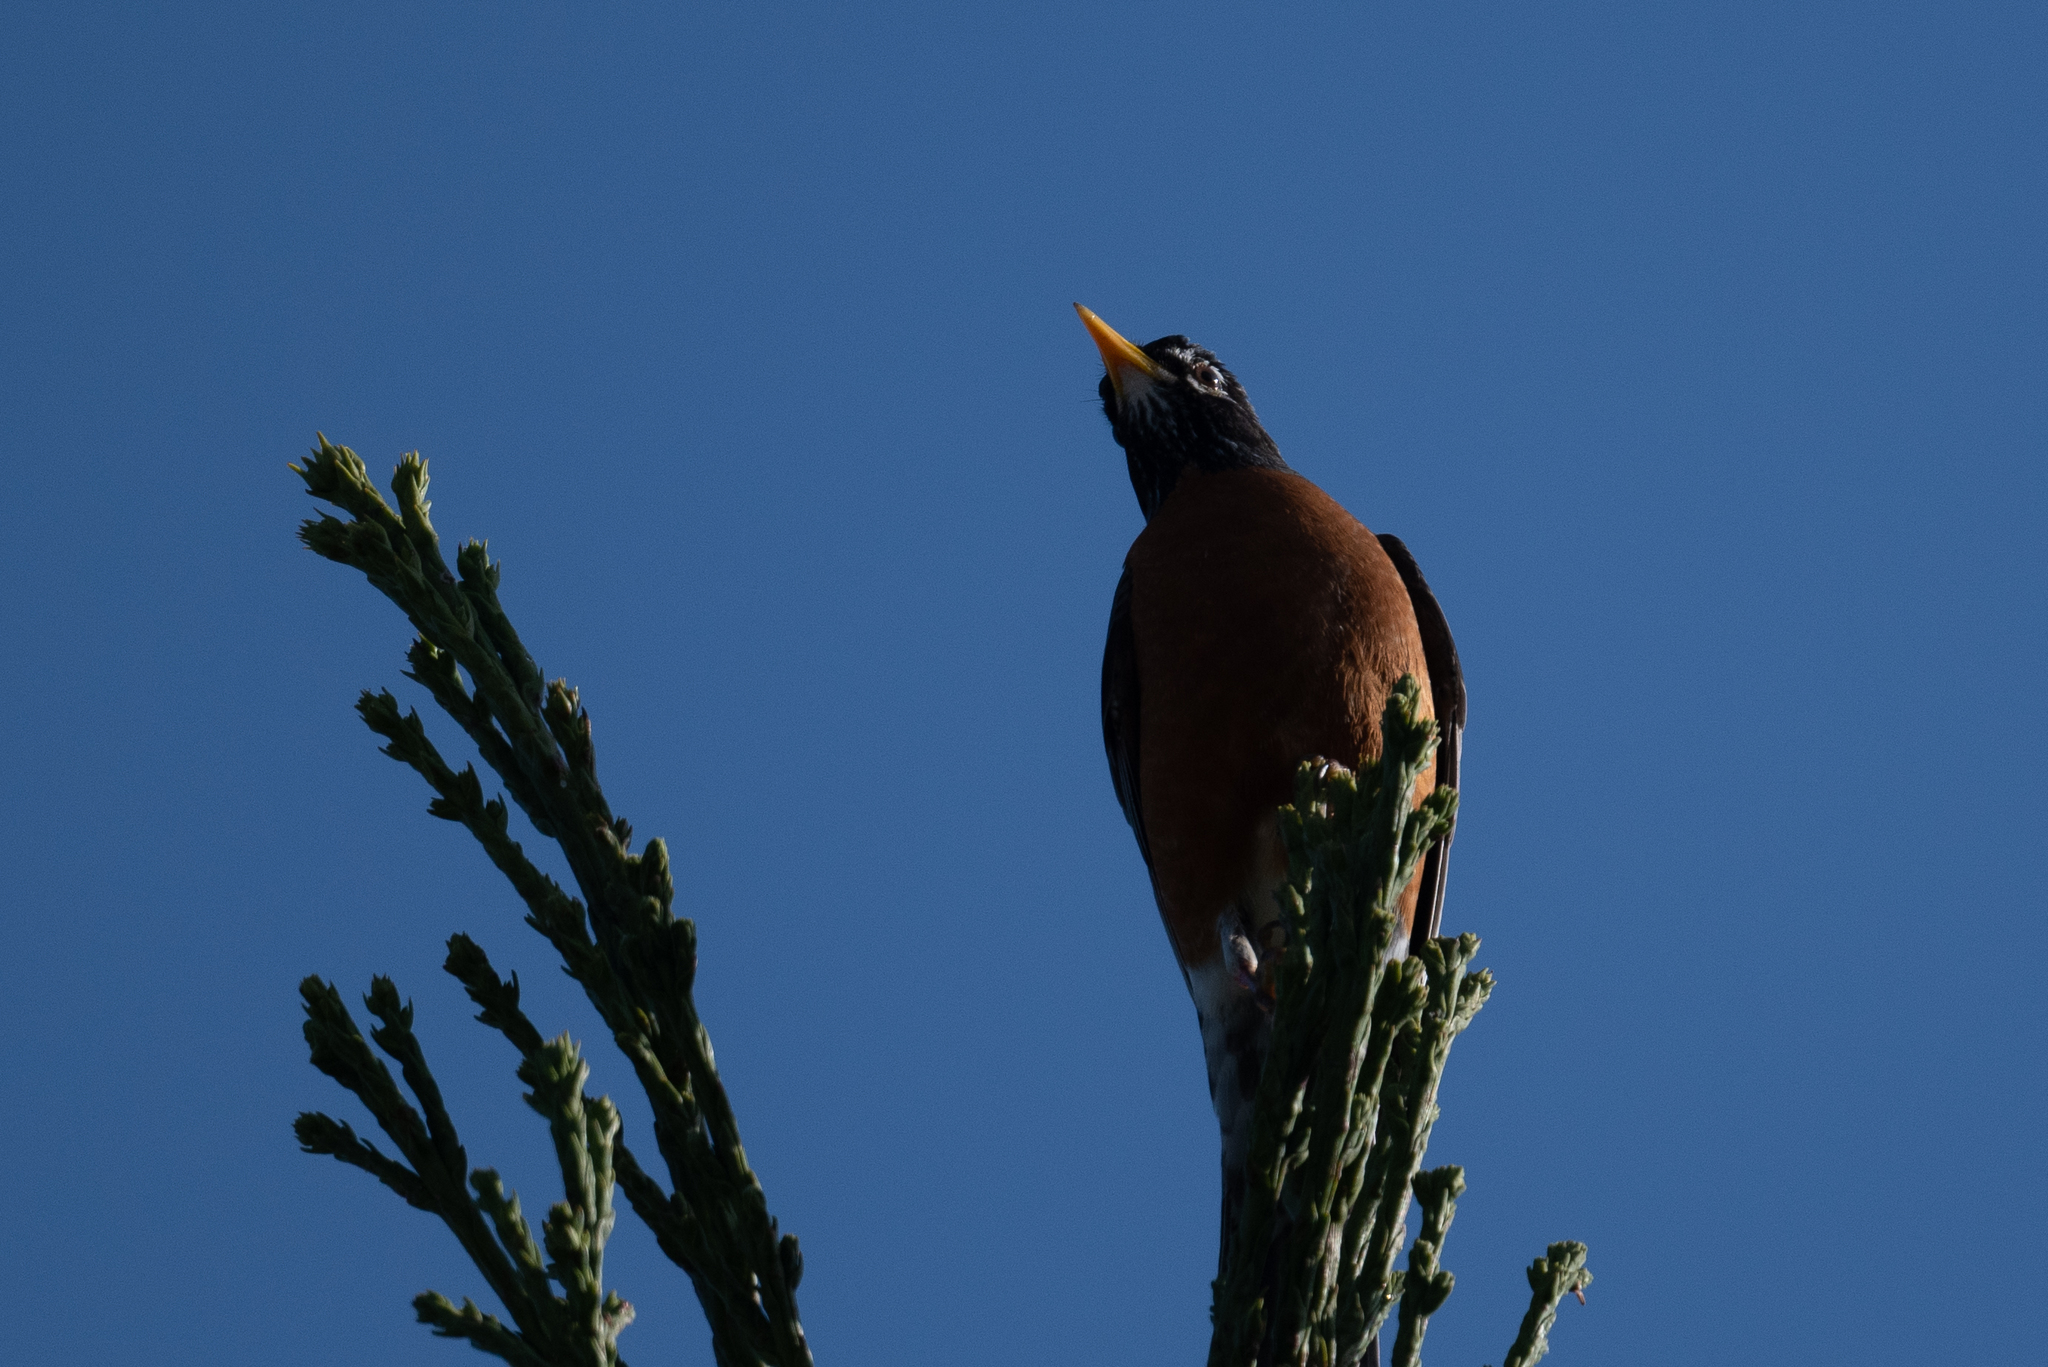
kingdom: Animalia
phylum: Chordata
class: Aves
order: Passeriformes
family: Turdidae
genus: Turdus
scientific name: Turdus migratorius
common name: American robin
